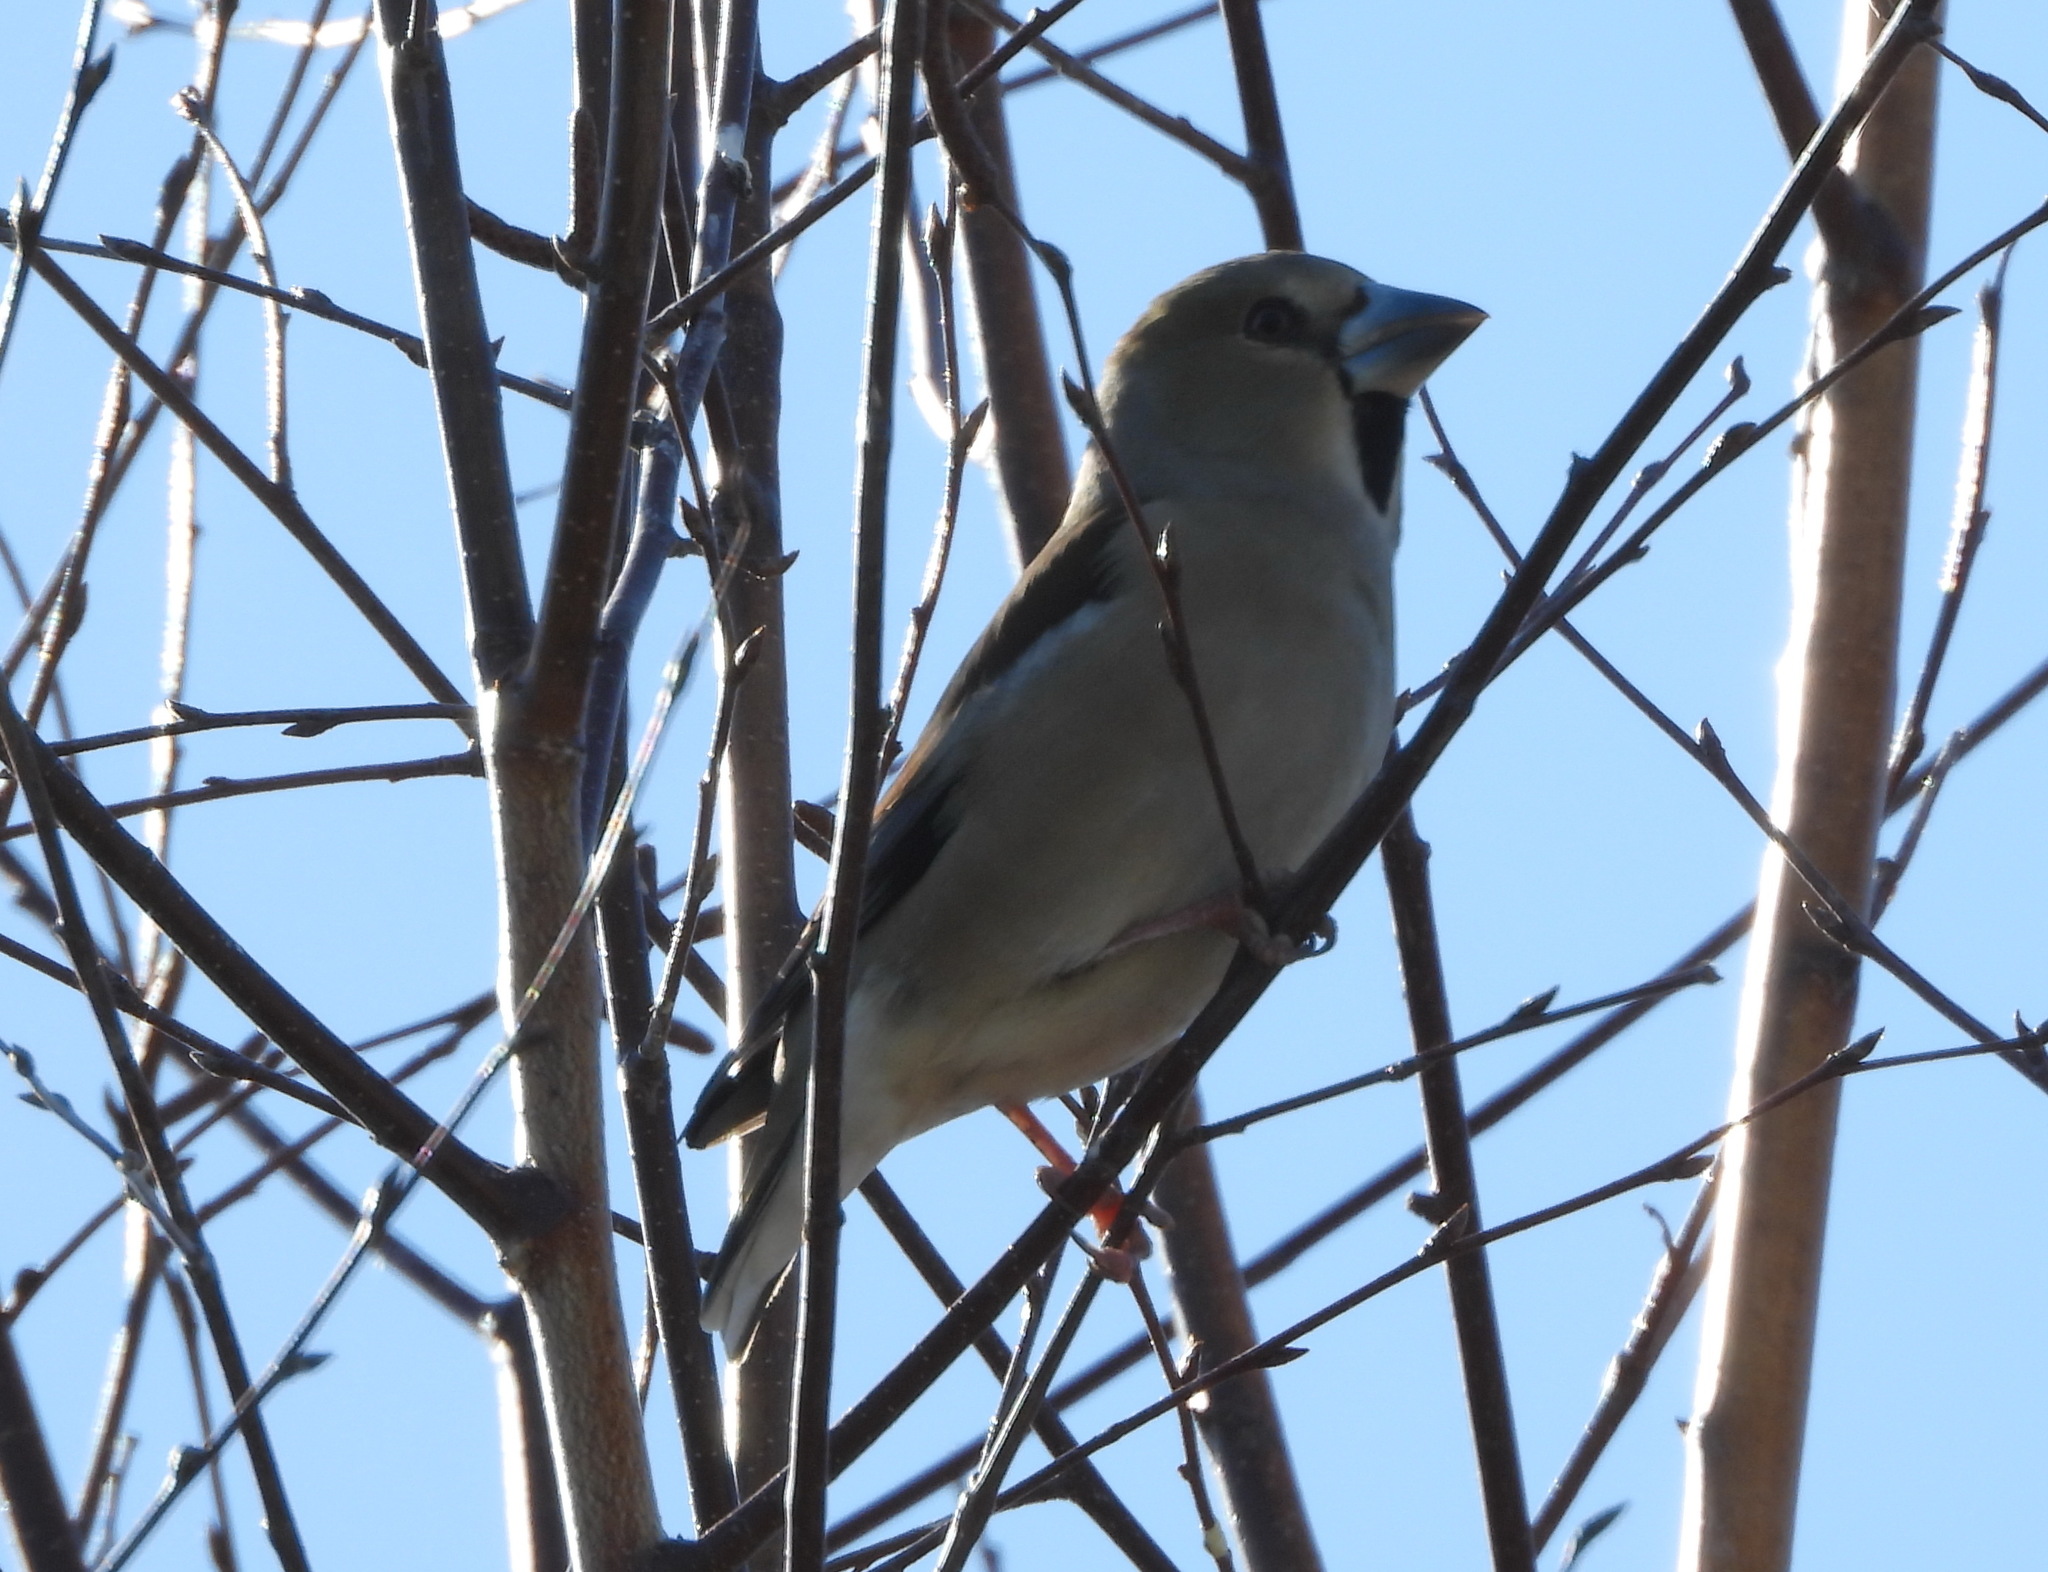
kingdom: Animalia
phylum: Chordata
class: Aves
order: Passeriformes
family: Fringillidae
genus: Coccothraustes
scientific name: Coccothraustes coccothraustes
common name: Hawfinch
